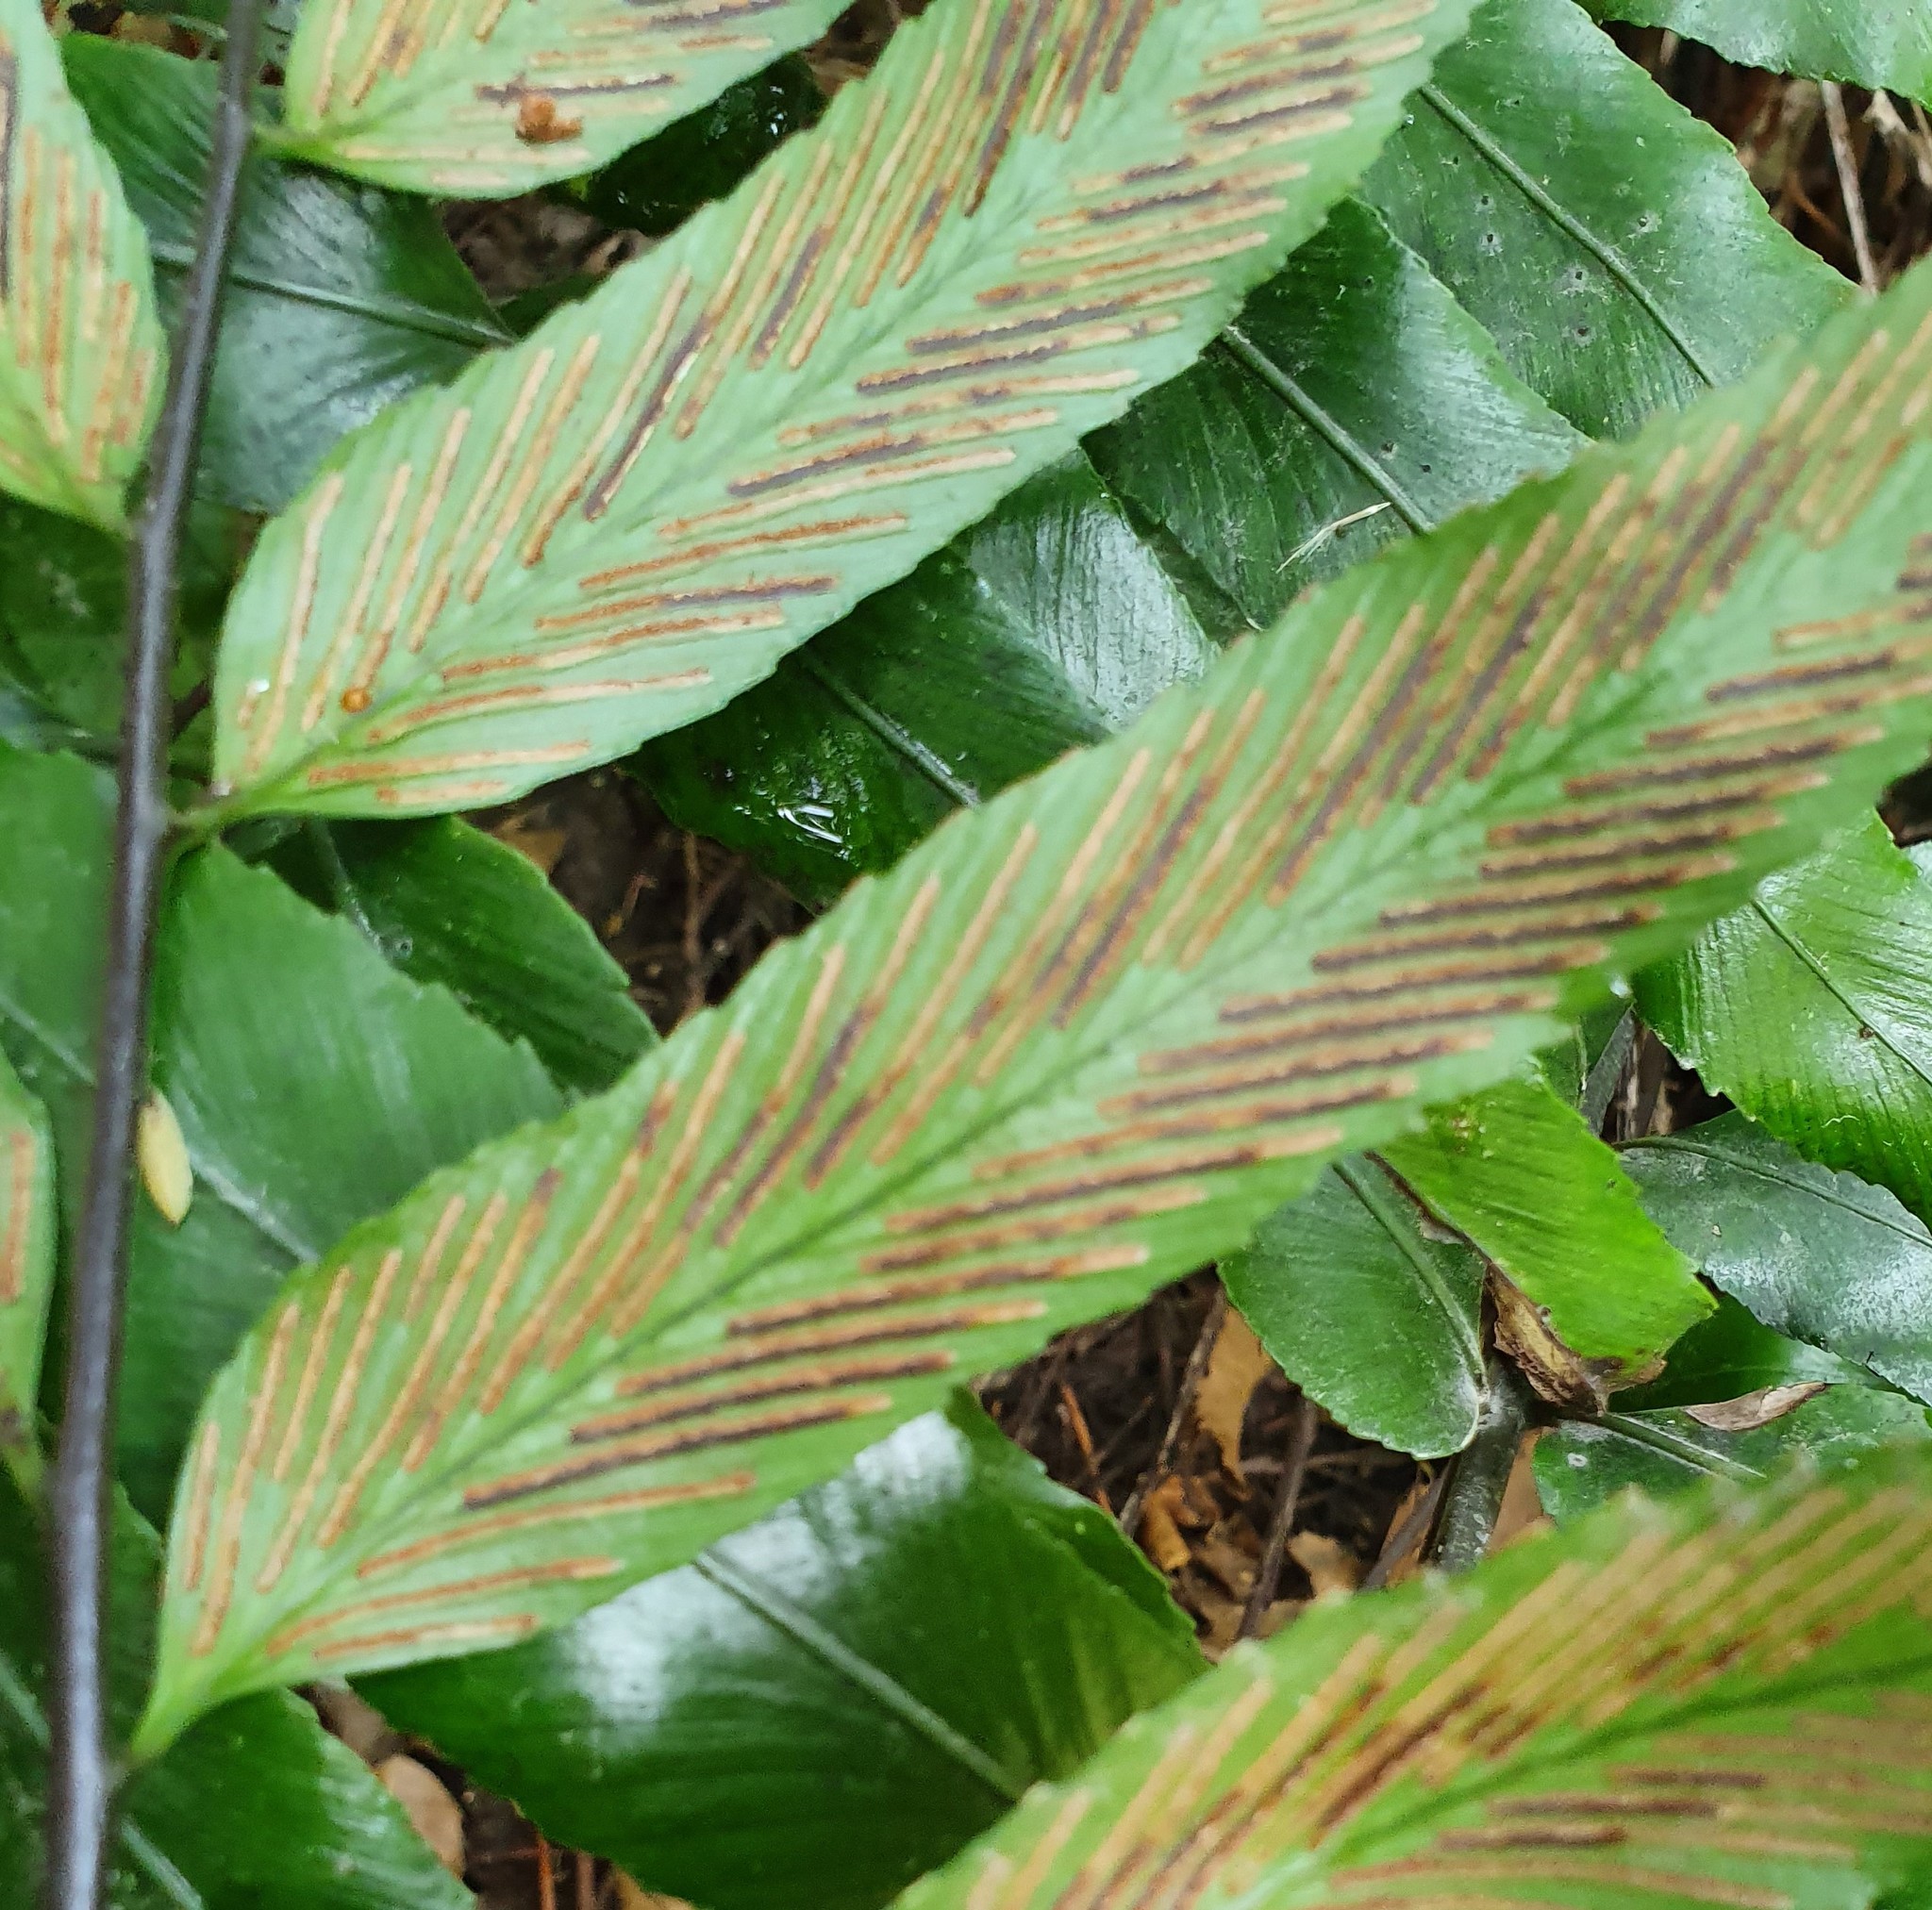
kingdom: Plantae
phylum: Tracheophyta
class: Polypodiopsida
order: Polypodiales
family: Aspleniaceae
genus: Asplenium
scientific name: Asplenium oblongifolium
